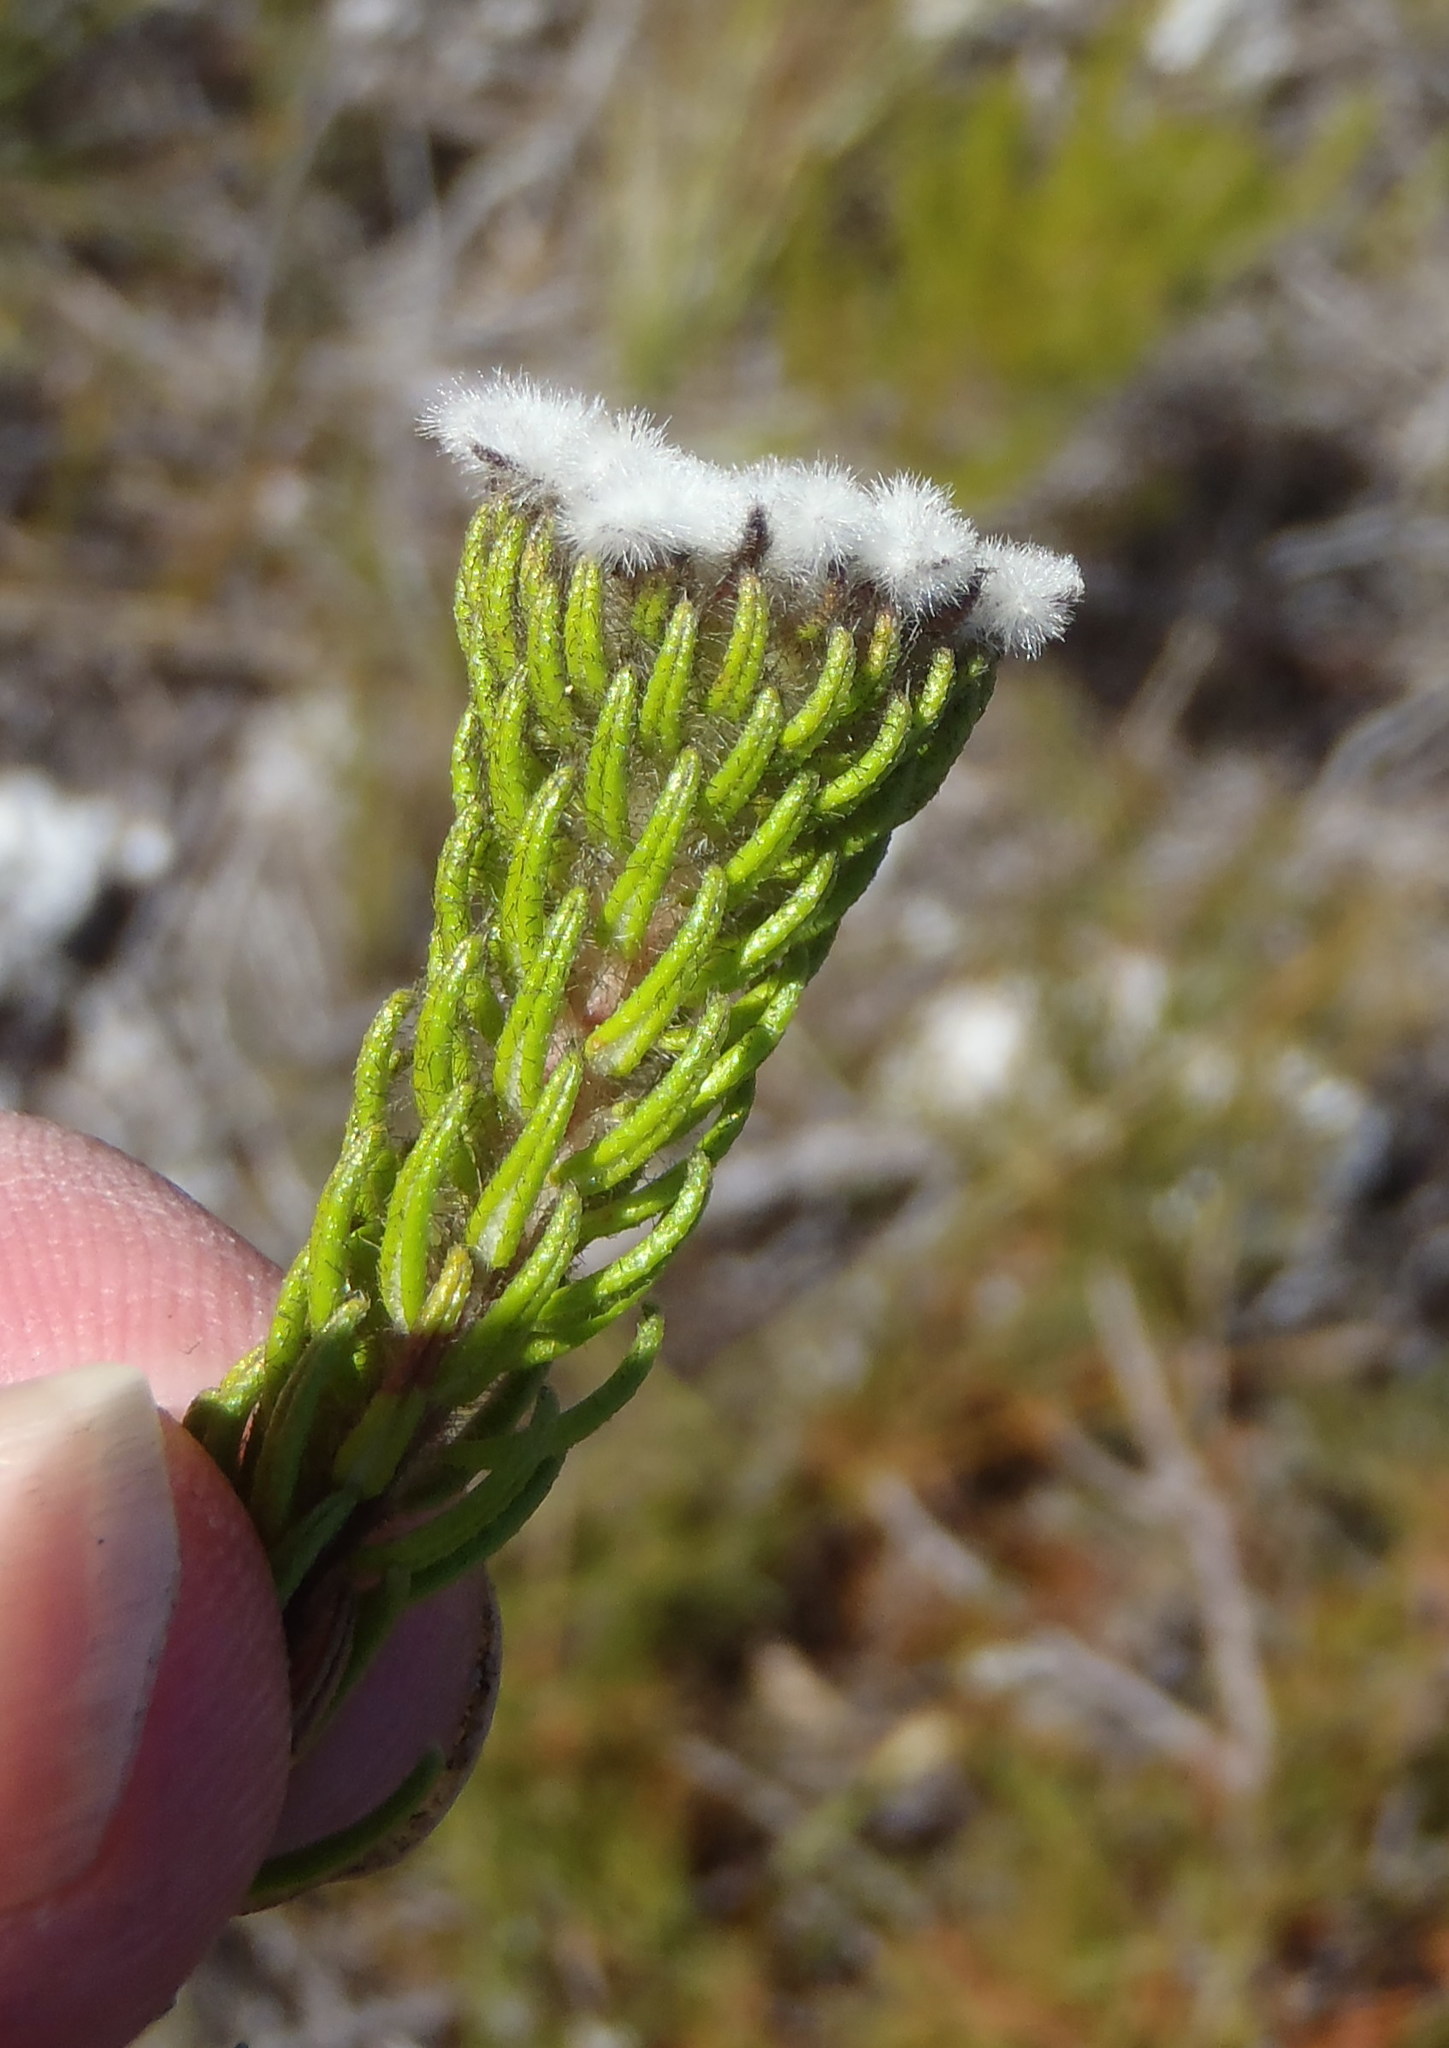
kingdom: Plantae
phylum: Tracheophyta
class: Magnoliopsida
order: Rosales
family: Rhamnaceae
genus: Phylica
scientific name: Phylica curvifolia
